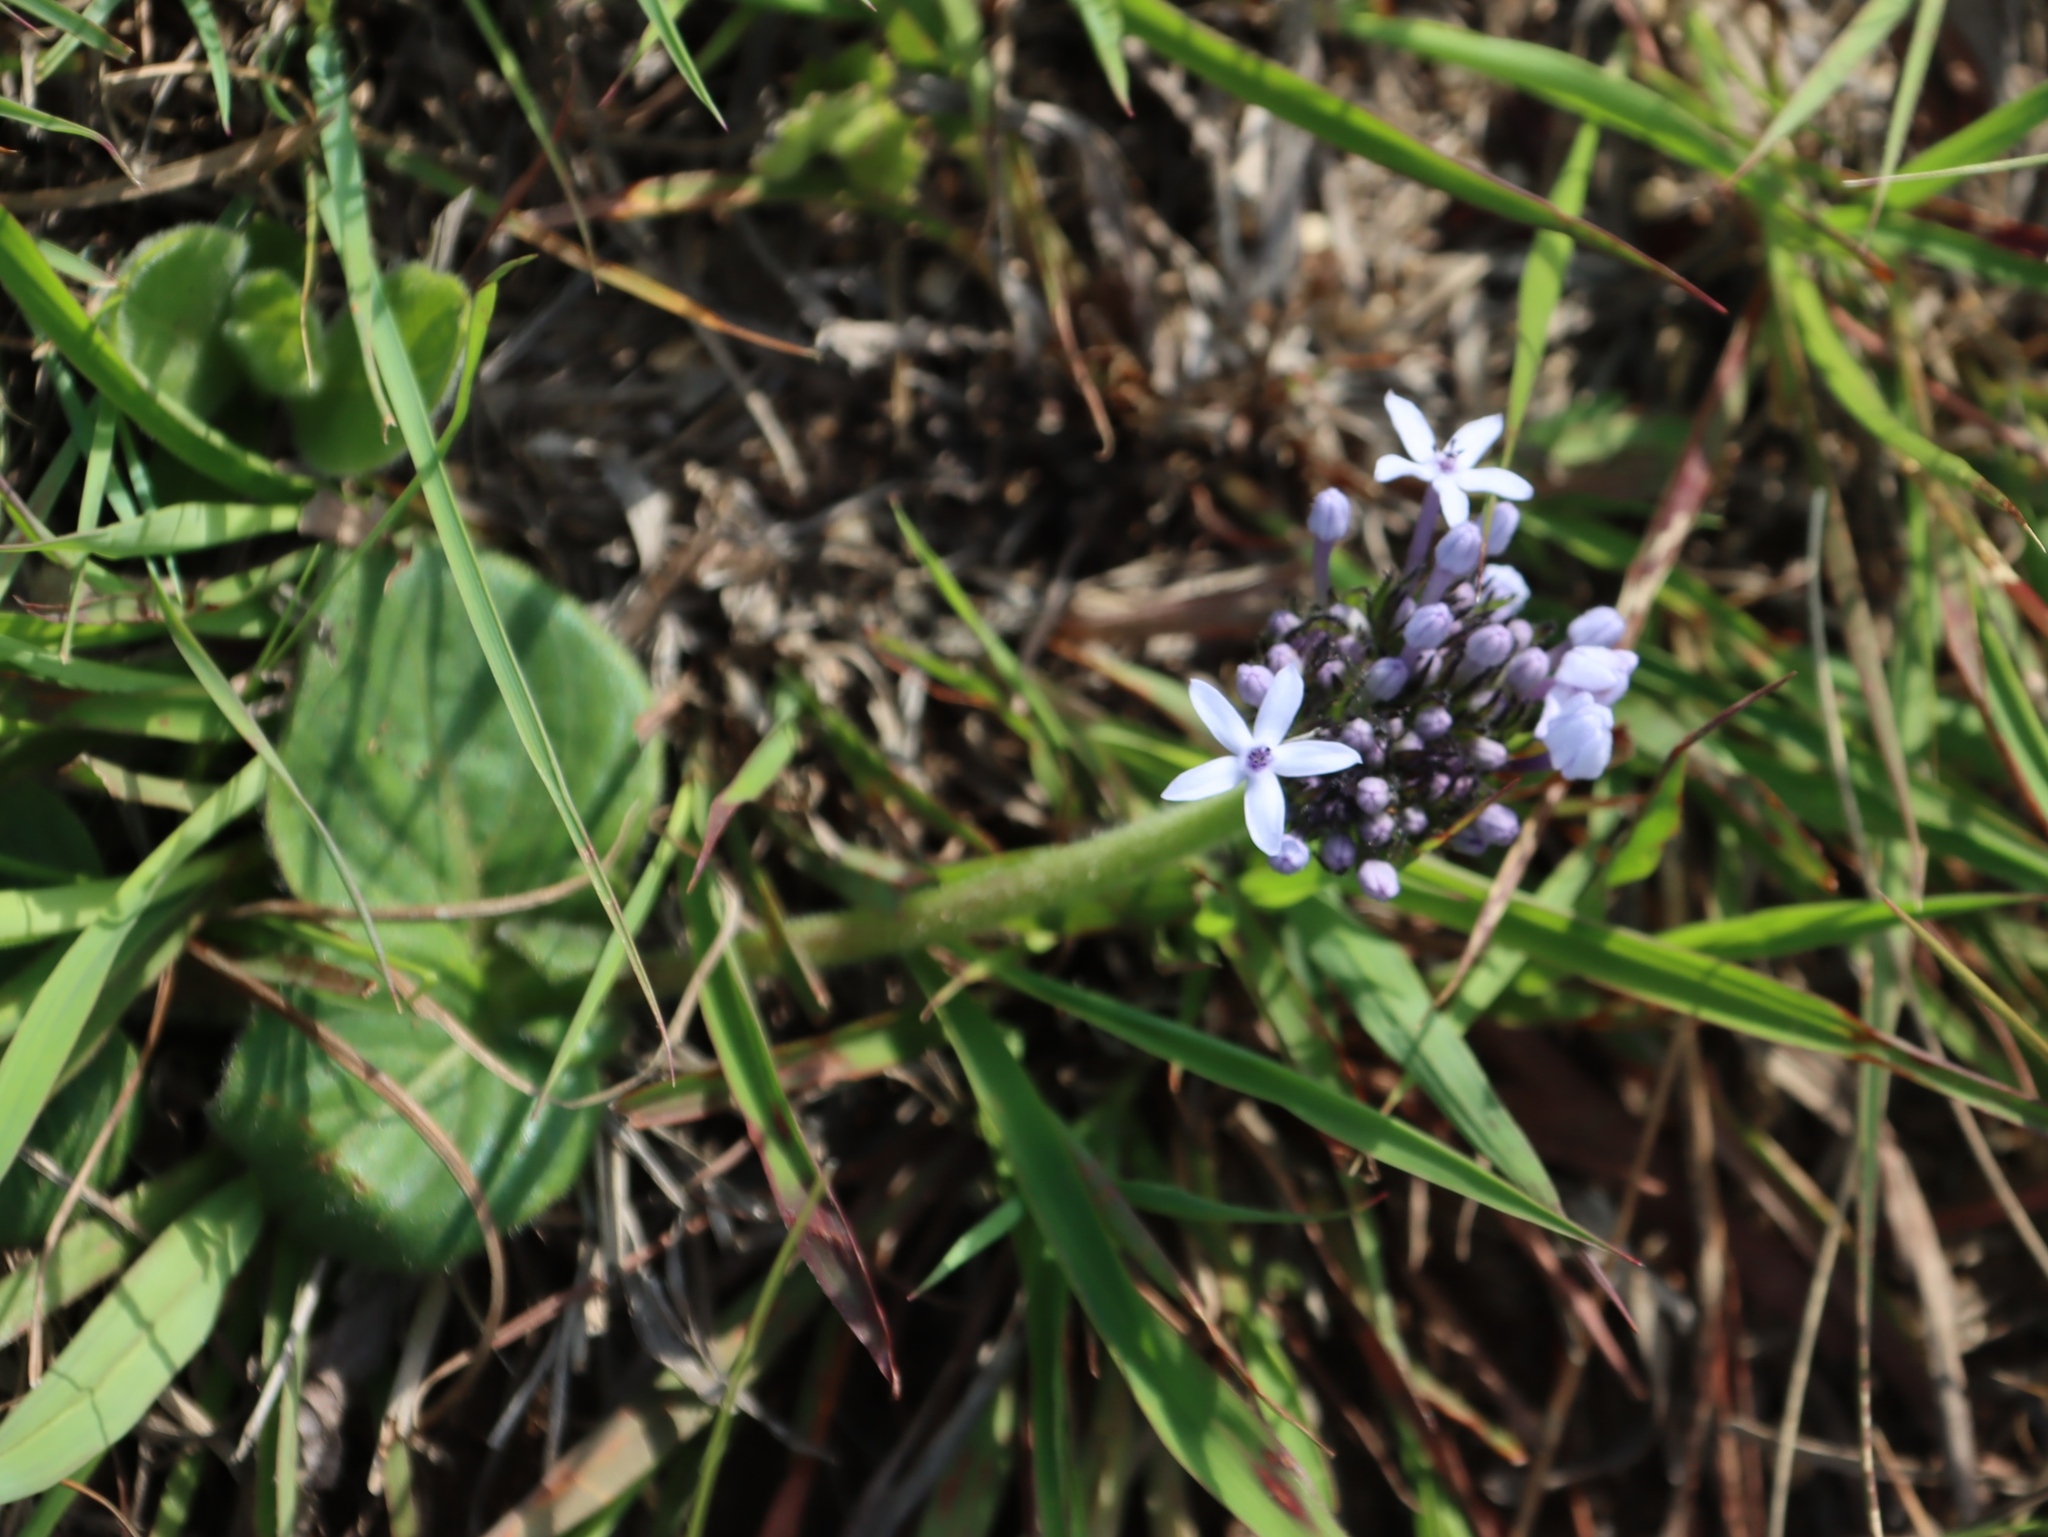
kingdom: Plantae
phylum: Tracheophyta
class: Magnoliopsida
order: Gentianales
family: Rubiaceae
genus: Pentanisia
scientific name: Pentanisia prunelloides
